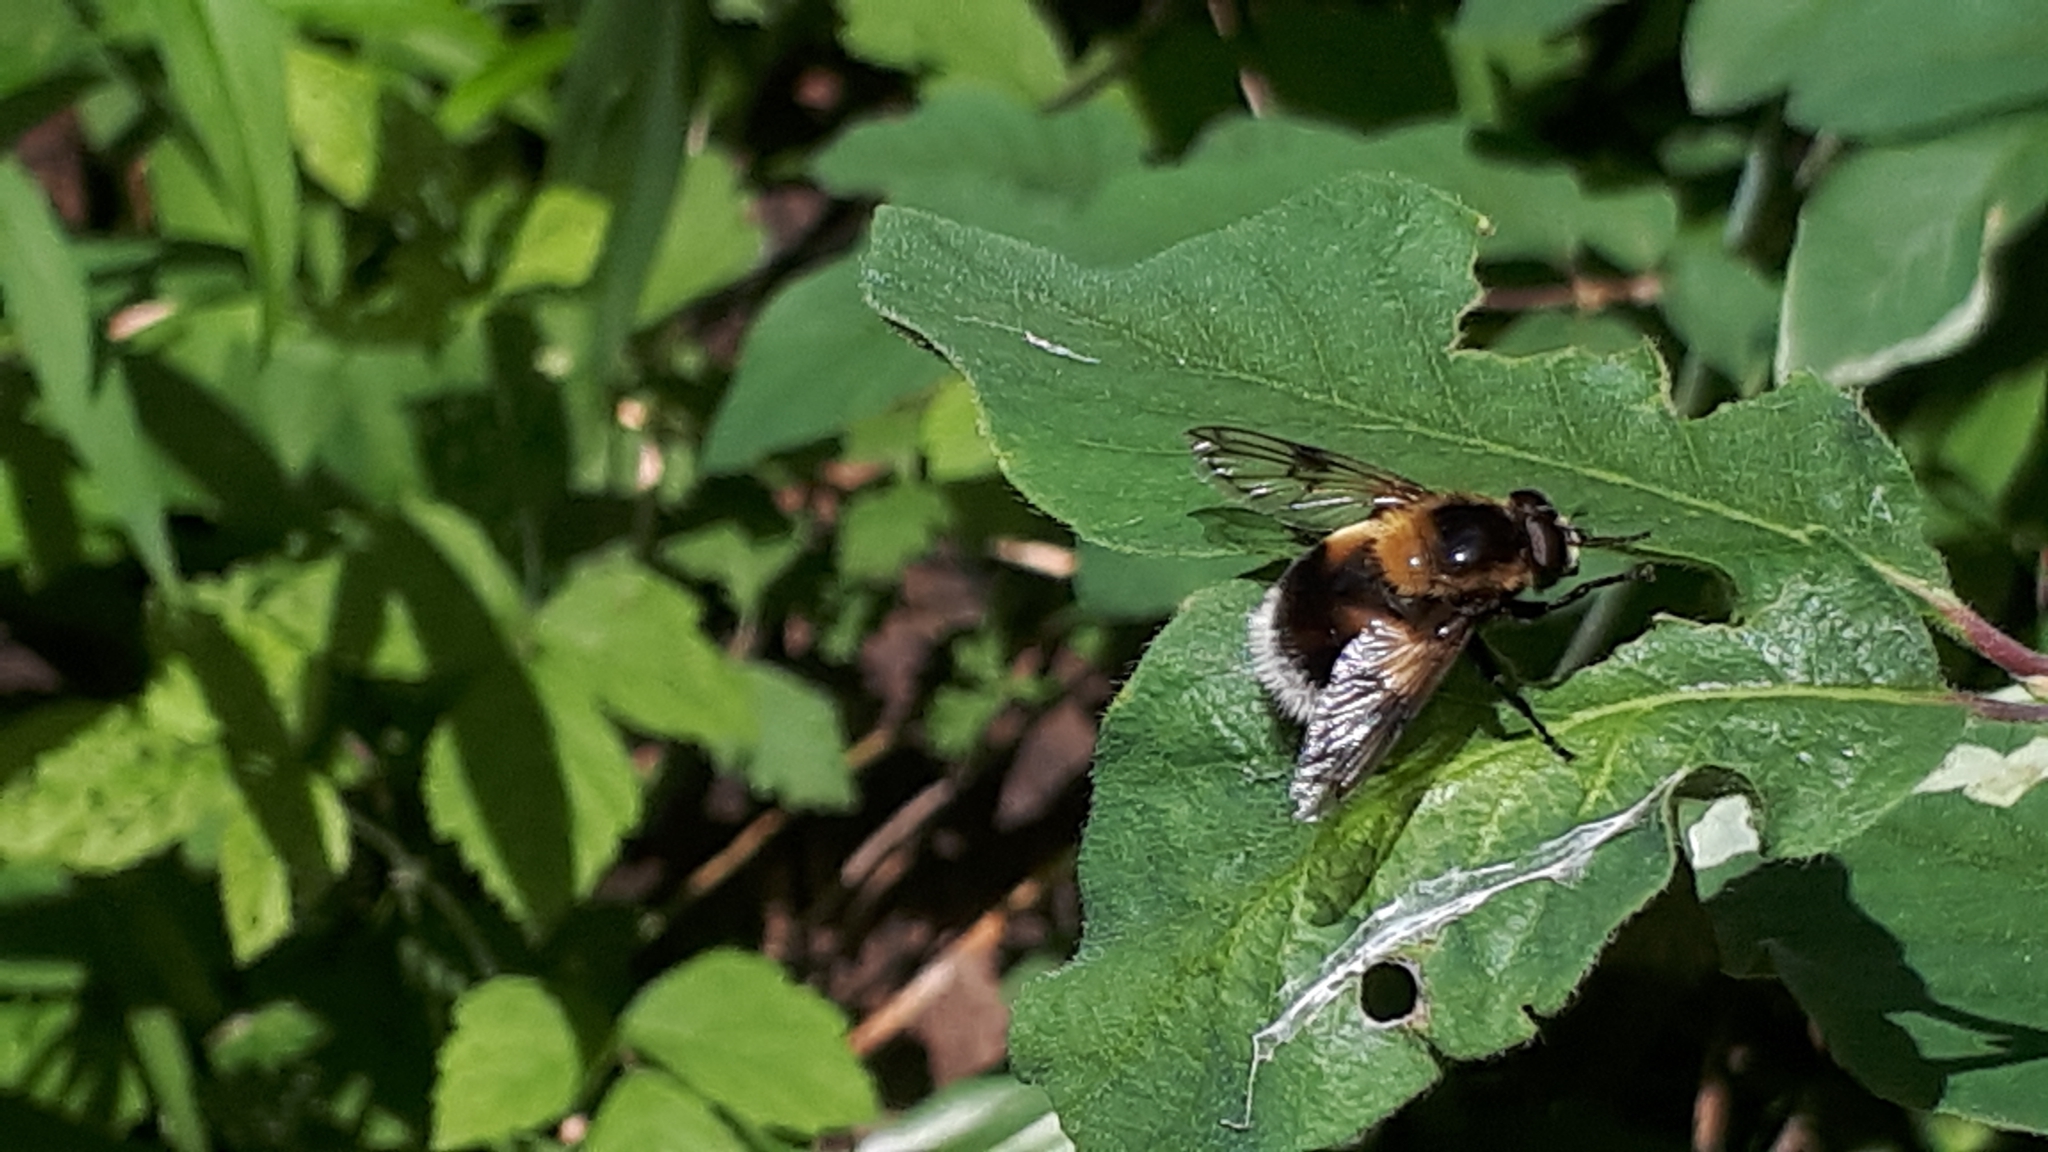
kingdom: Animalia
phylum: Arthropoda
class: Insecta
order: Diptera
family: Syrphidae
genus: Volucella
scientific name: Volucella bombylans
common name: Bumble bee hover fly
